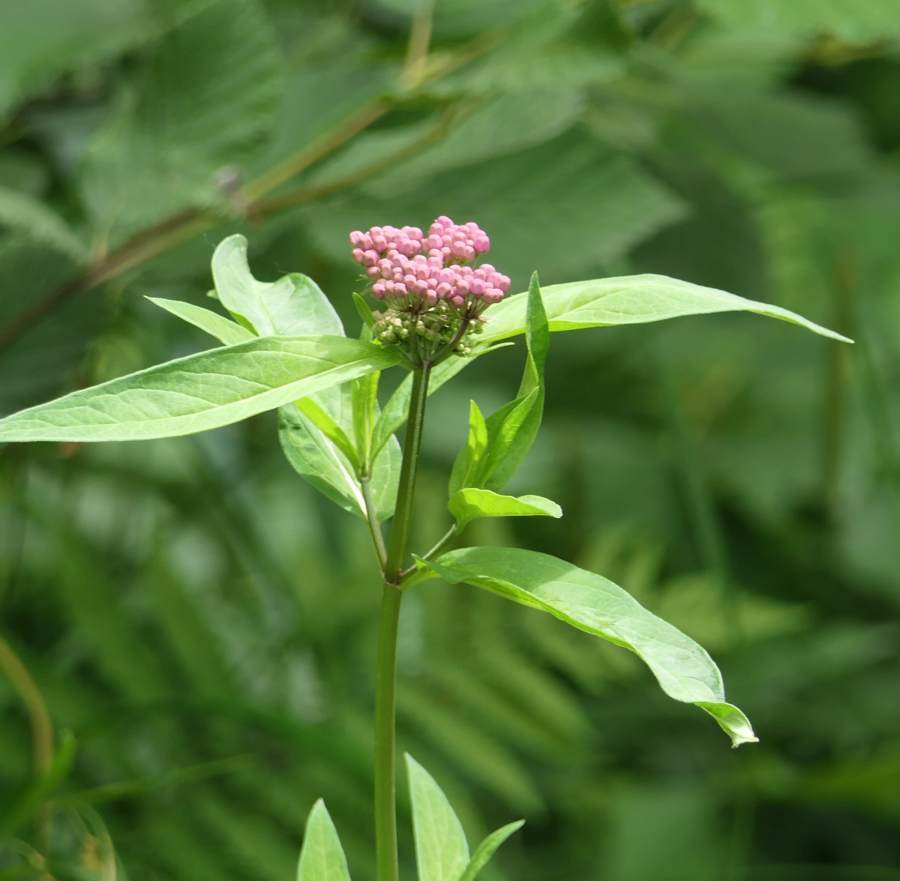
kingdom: Plantae
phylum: Tracheophyta
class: Magnoliopsida
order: Gentianales
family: Apocynaceae
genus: Asclepias
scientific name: Asclepias incarnata
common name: Swamp milkweed
